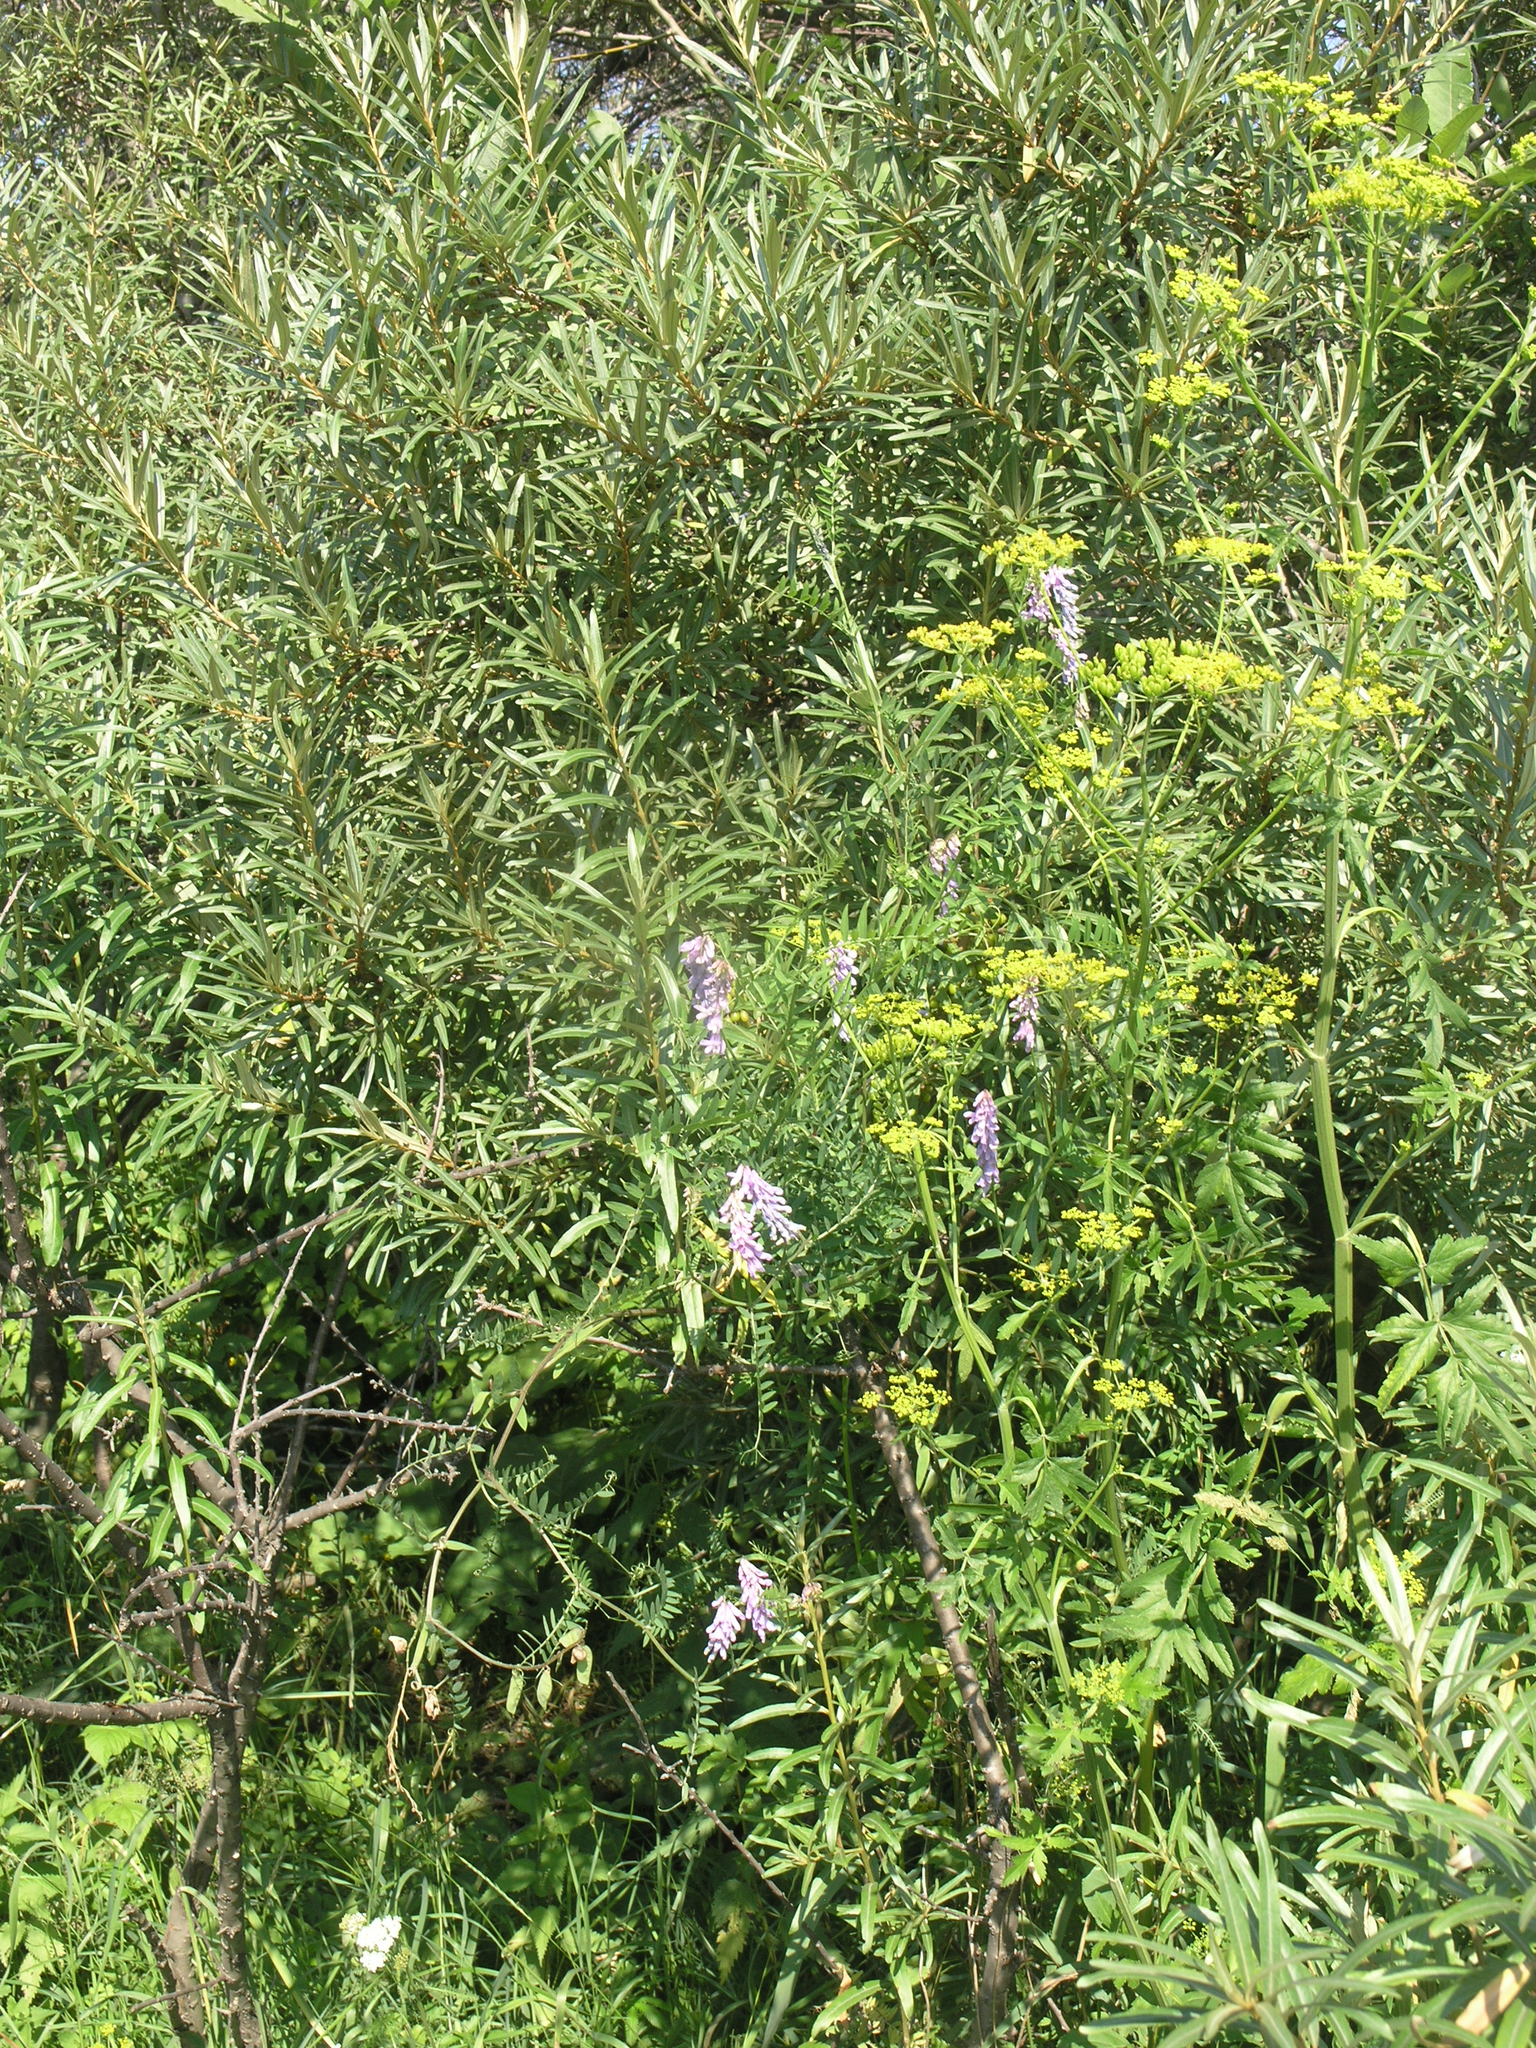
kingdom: Plantae
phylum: Tracheophyta
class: Magnoliopsida
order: Apiales
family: Apiaceae
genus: Pastinaca
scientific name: Pastinaca sativa
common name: Wild parsnip
